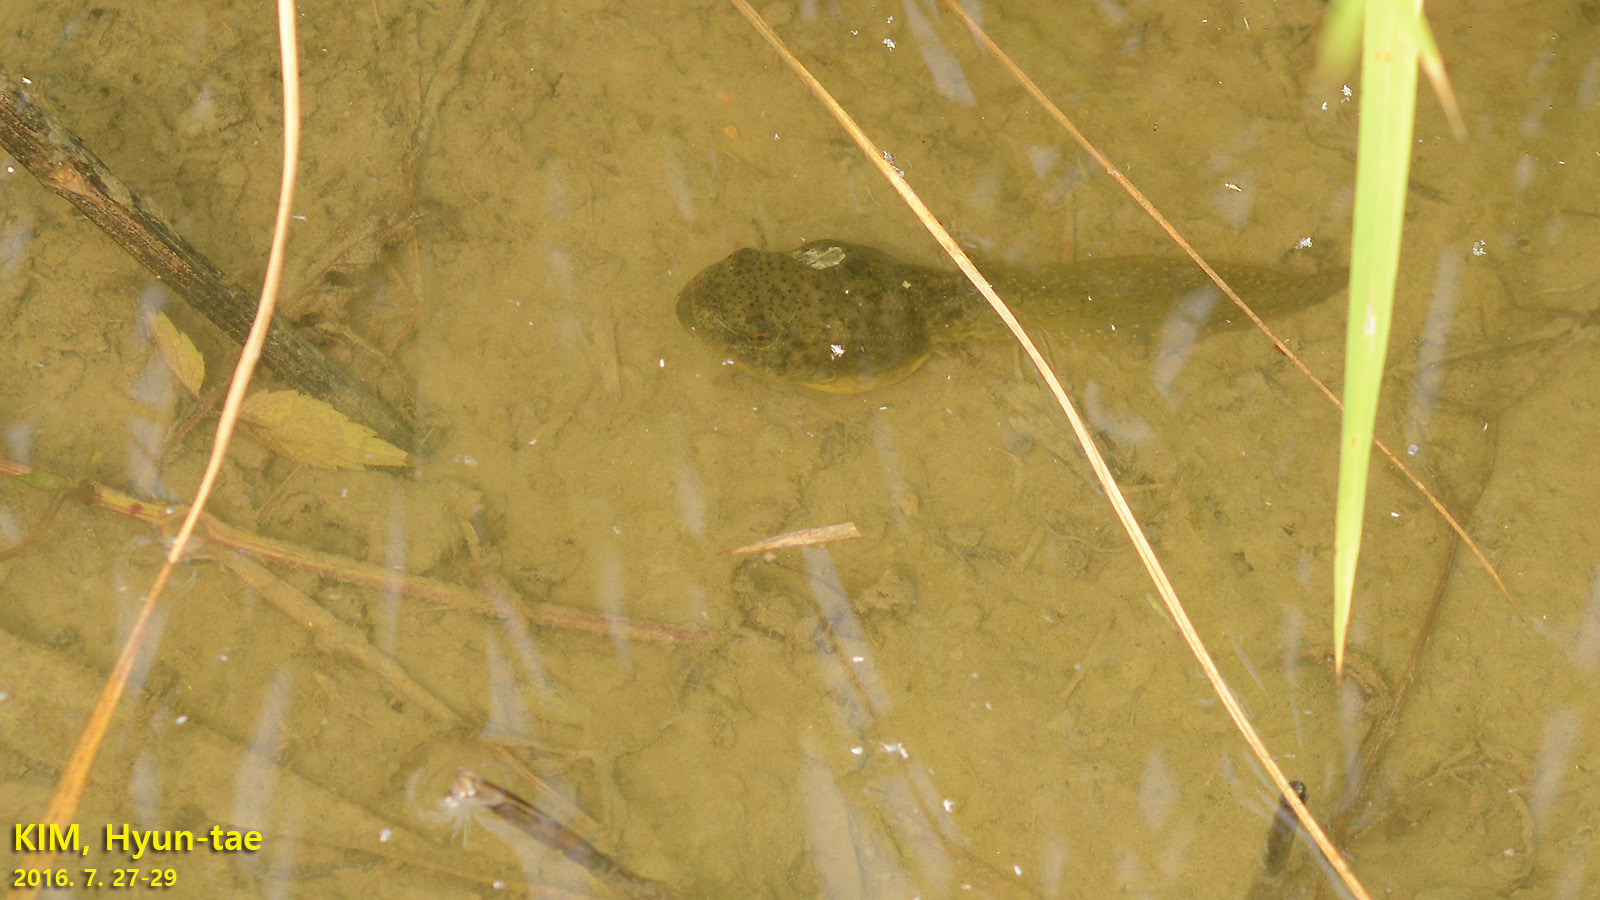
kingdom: Animalia
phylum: Chordata
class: Amphibia
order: Anura
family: Ranidae
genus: Lithobates
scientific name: Lithobates catesbeianus
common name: American bullfrog
